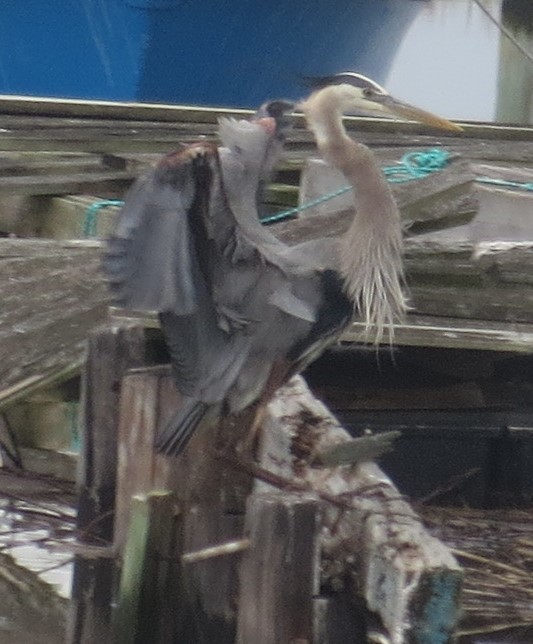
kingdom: Animalia
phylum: Chordata
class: Aves
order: Pelecaniformes
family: Ardeidae
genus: Ardea
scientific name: Ardea herodias
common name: Great blue heron
